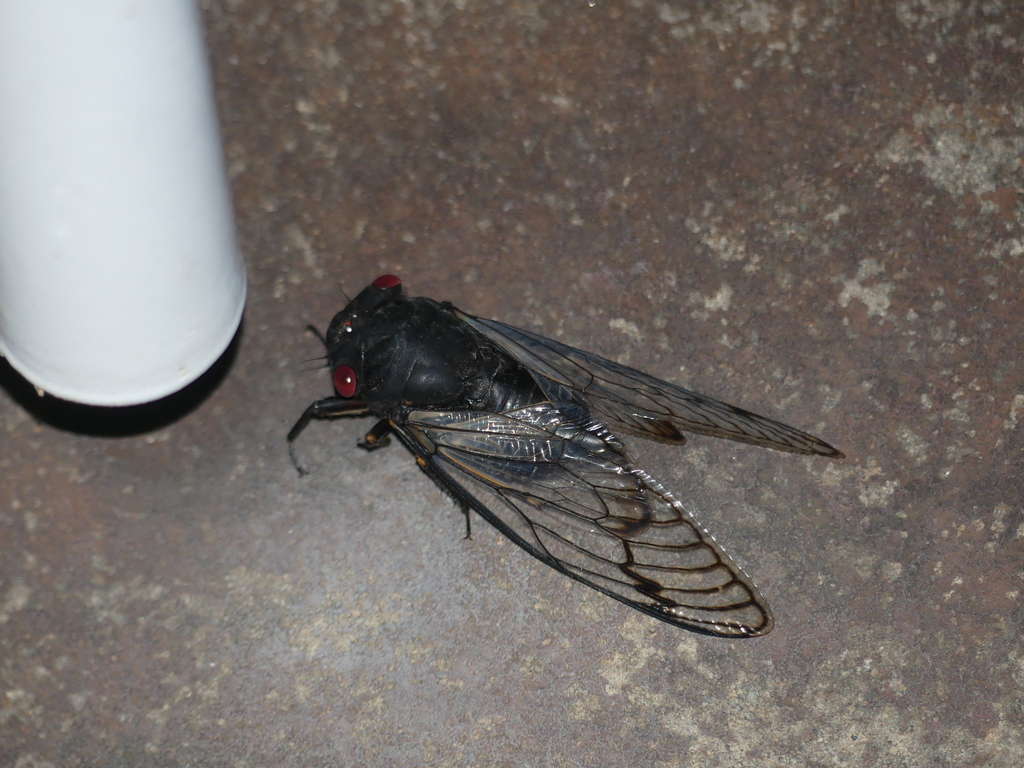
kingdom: Animalia
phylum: Arthropoda
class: Insecta
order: Hemiptera
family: Cicadidae
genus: Psaltoda
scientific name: Psaltoda moerens
